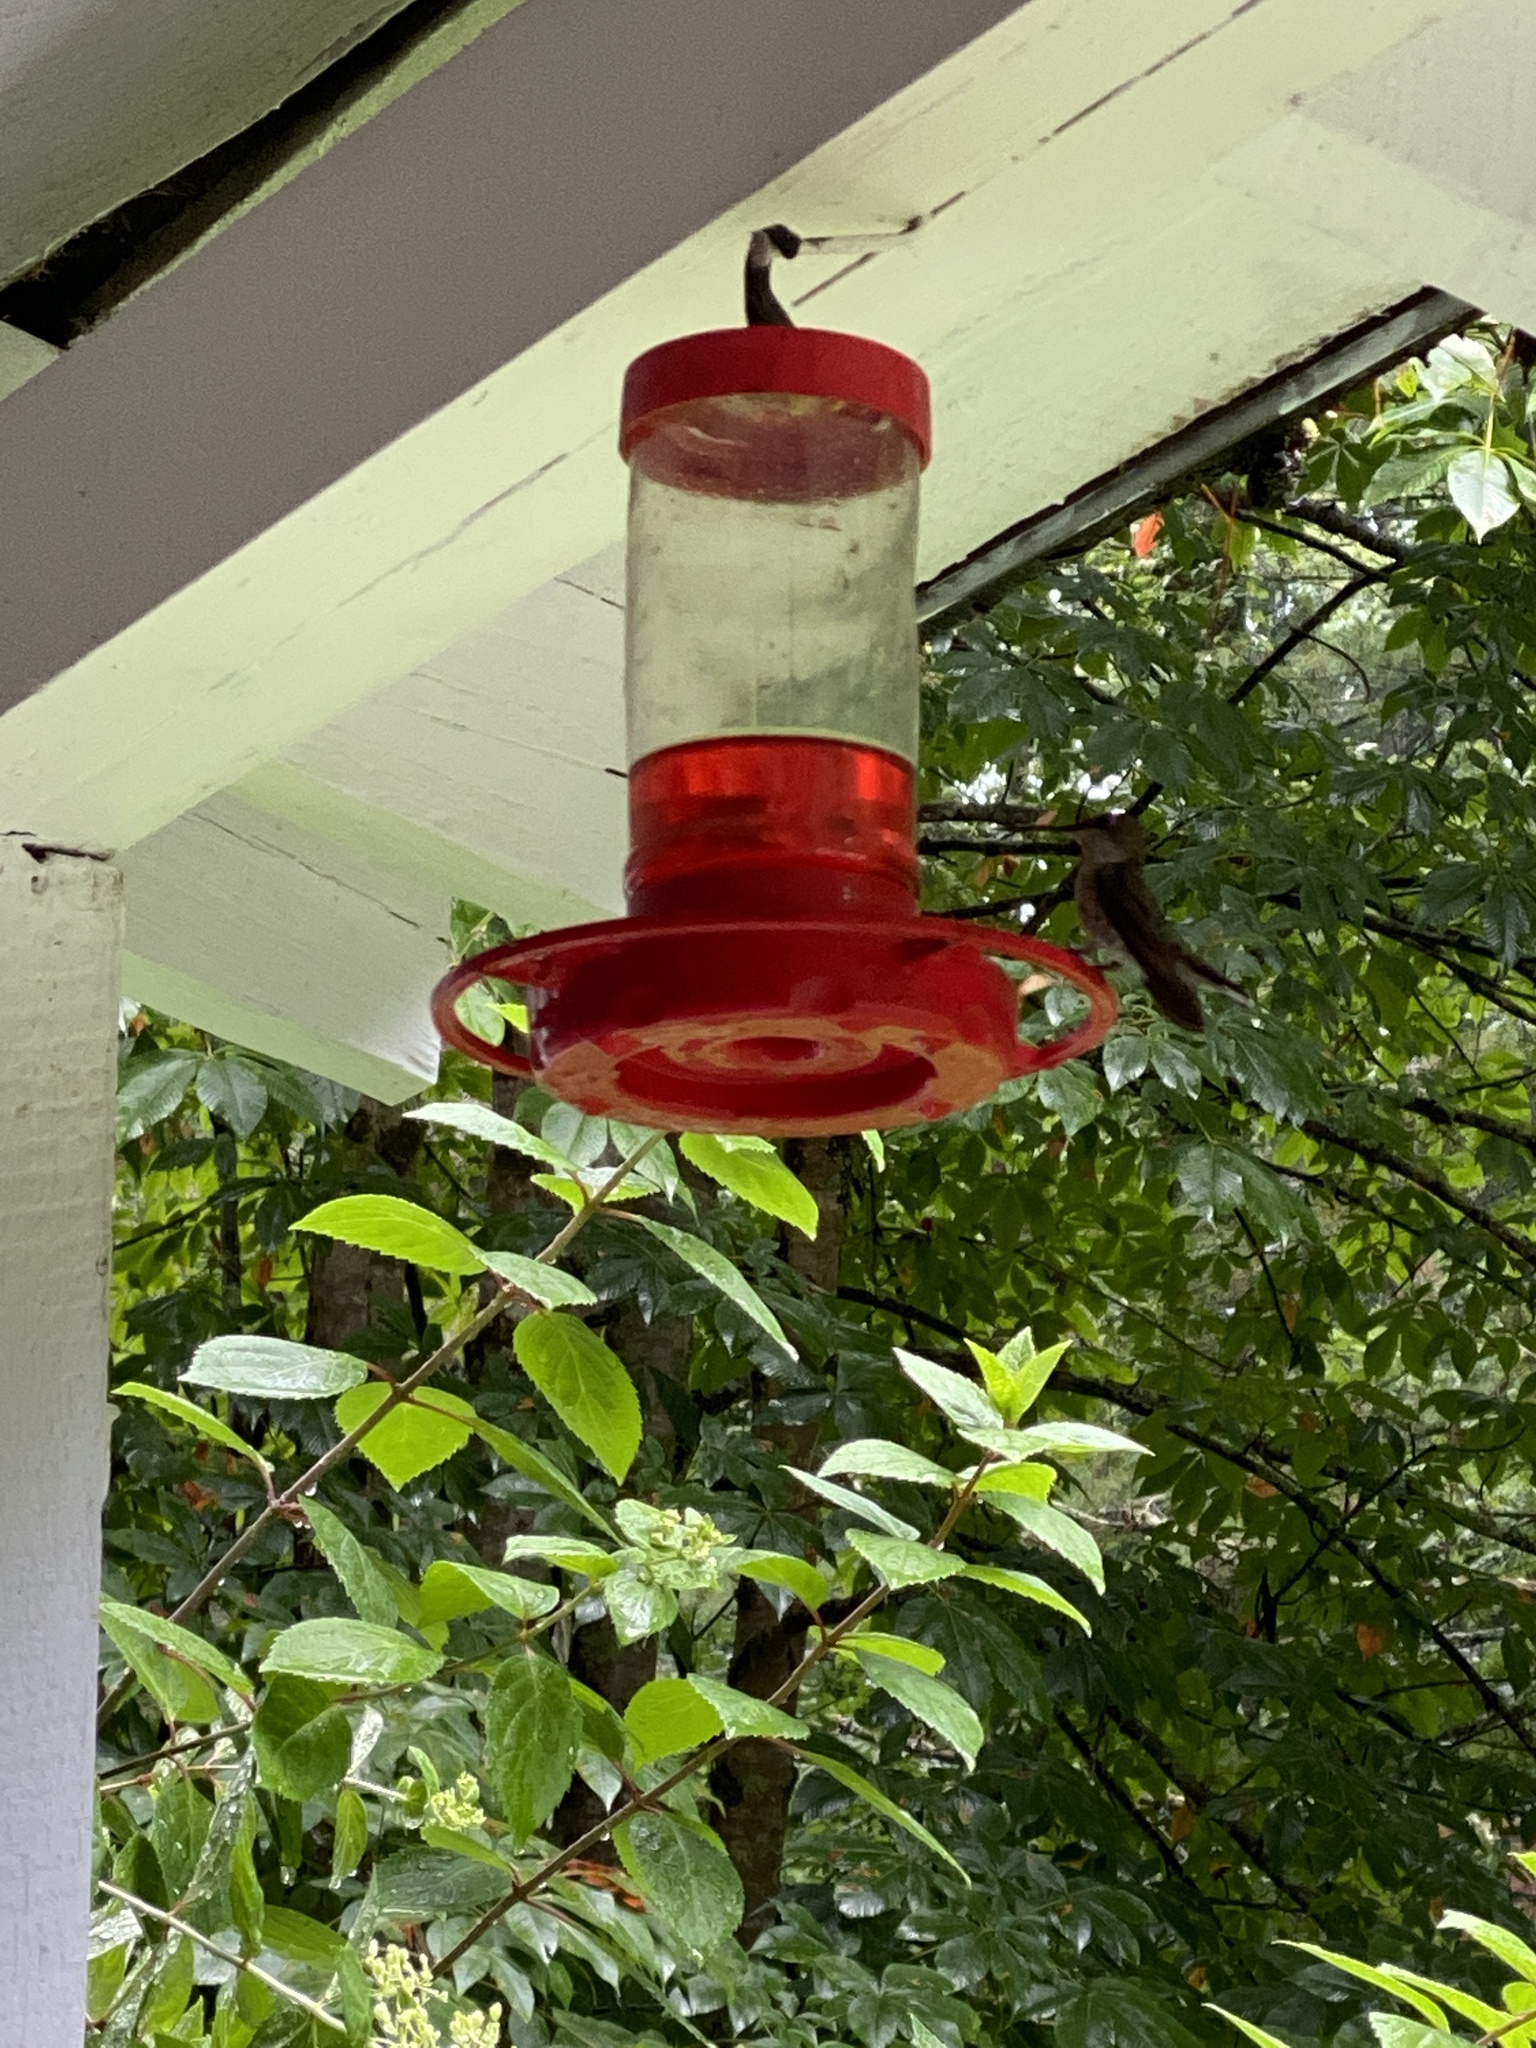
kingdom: Animalia
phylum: Chordata
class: Aves
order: Apodiformes
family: Trochilidae
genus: Archilochus
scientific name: Archilochus colubris
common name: Ruby-throated hummingbird
